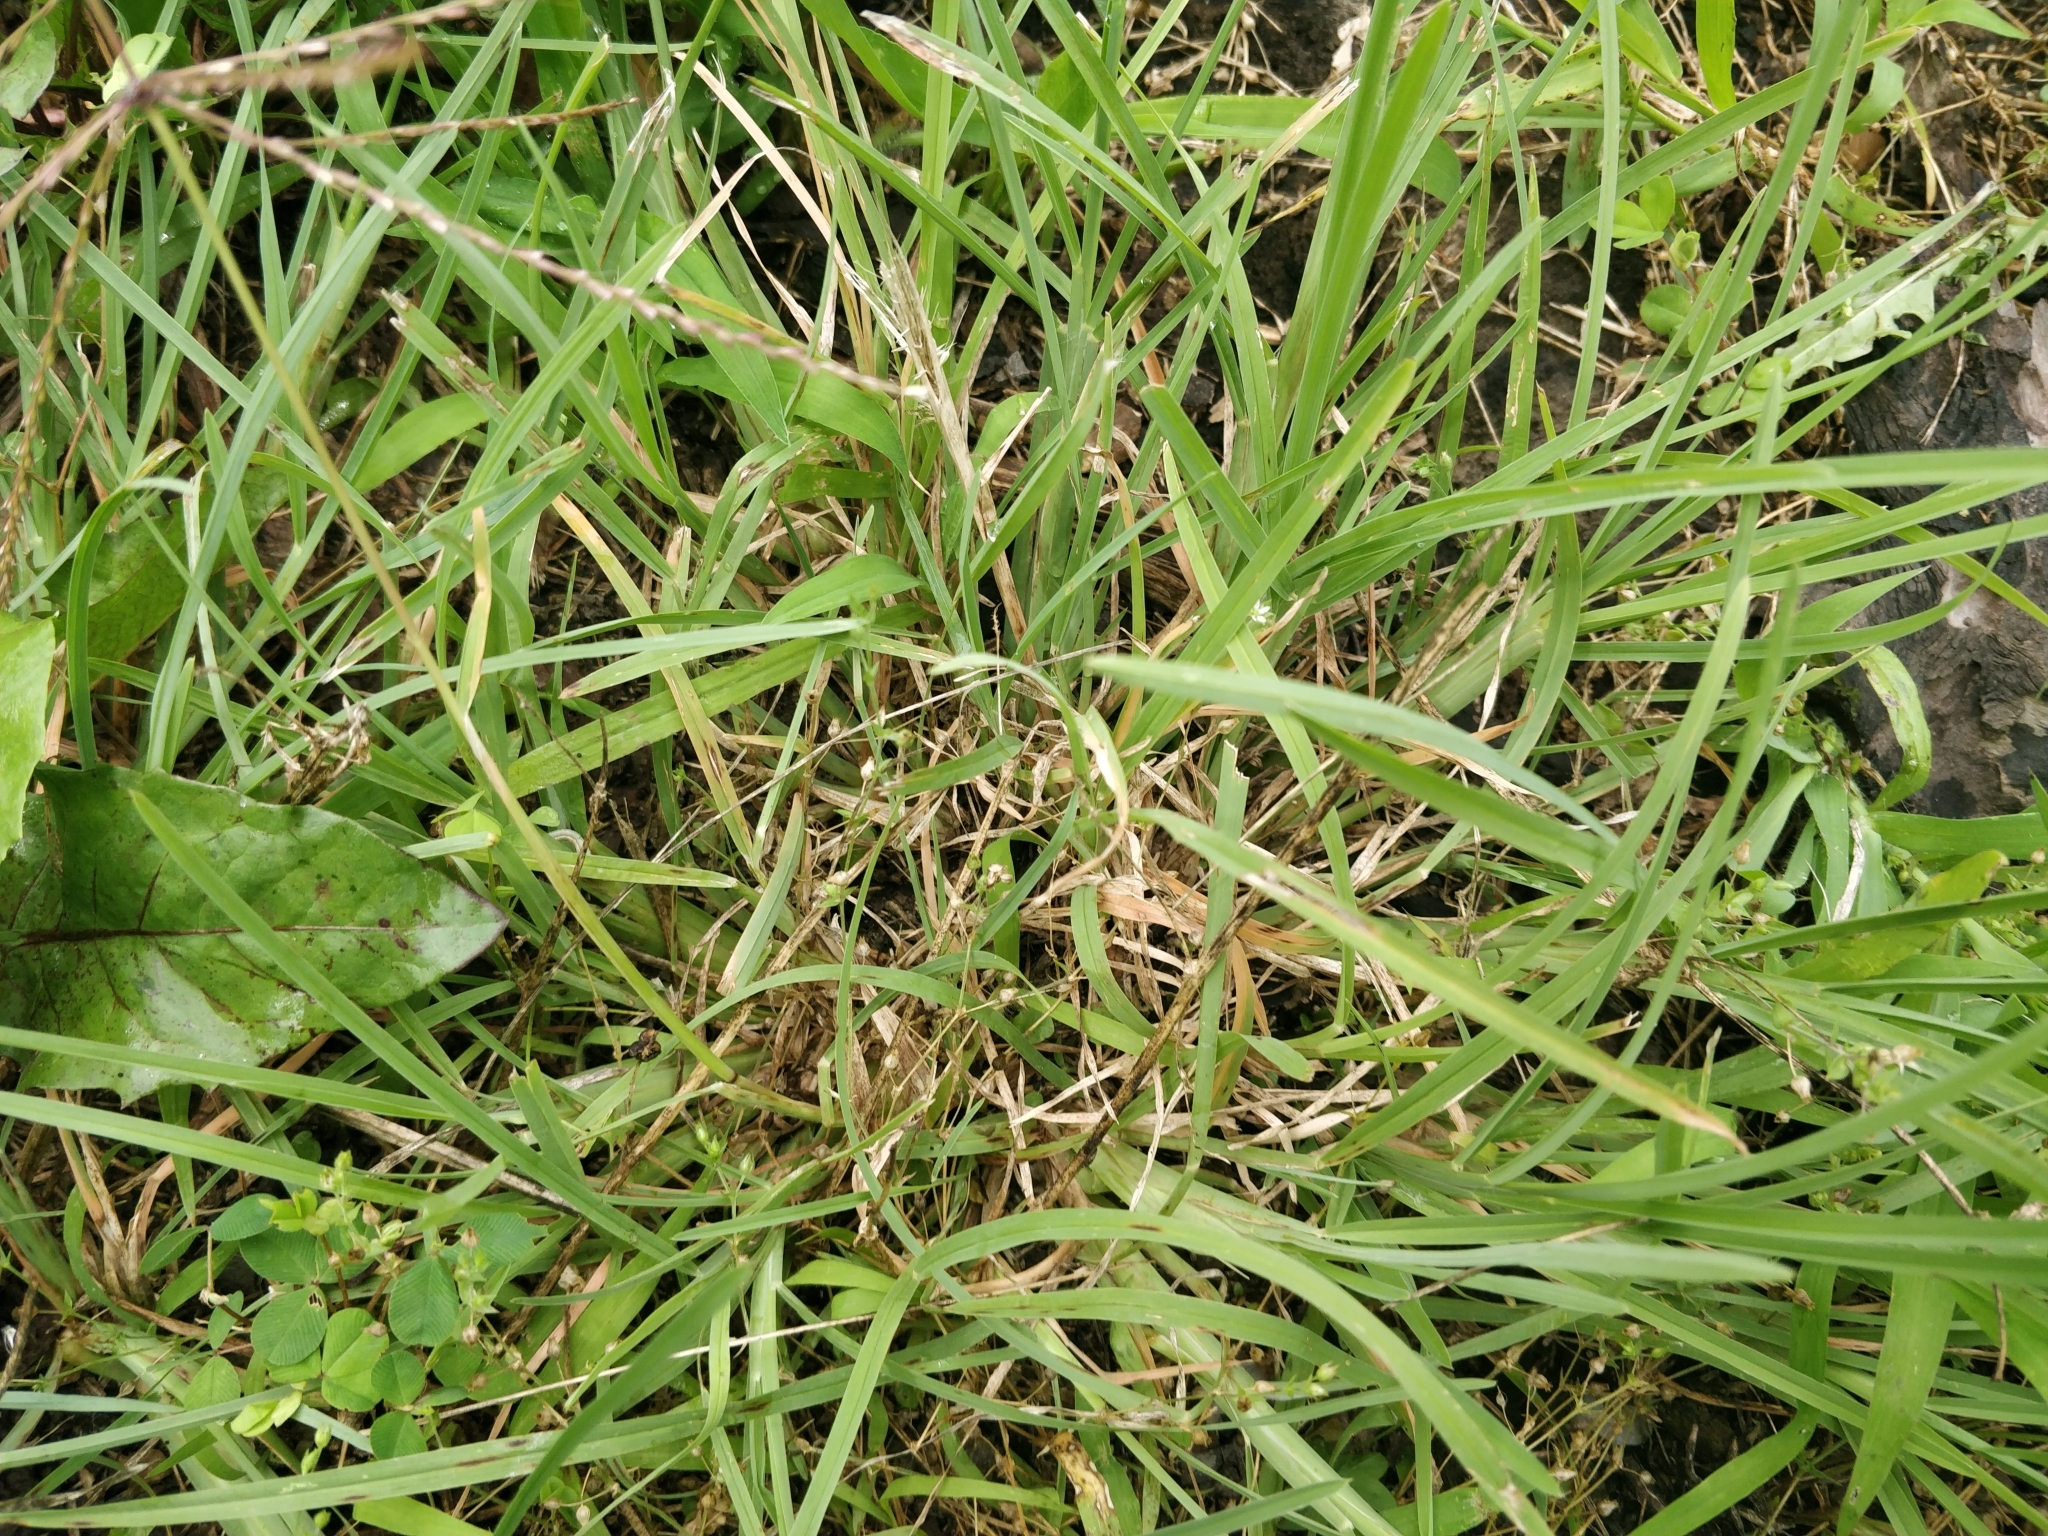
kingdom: Plantae
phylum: Tracheophyta
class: Liliopsida
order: Poales
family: Poaceae
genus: Chloris
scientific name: Chloris verticillata
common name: Tumble windmill grass
